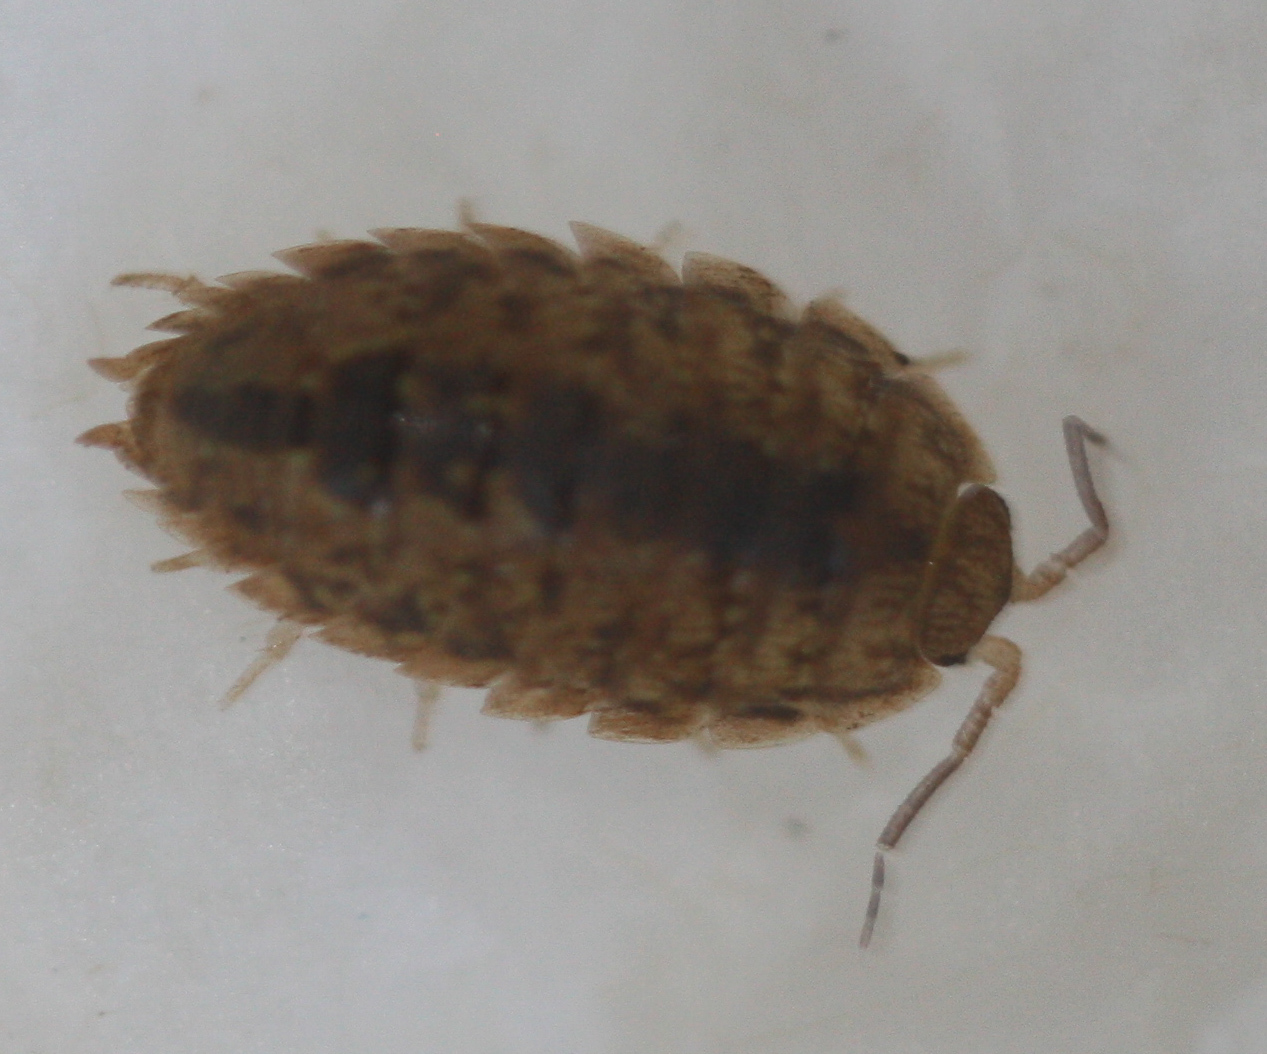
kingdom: Animalia
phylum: Arthropoda
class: Malacostraca
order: Isopoda
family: Alloniscidae
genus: Alloniscus
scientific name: Alloniscus oahuensis
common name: Pillbug
